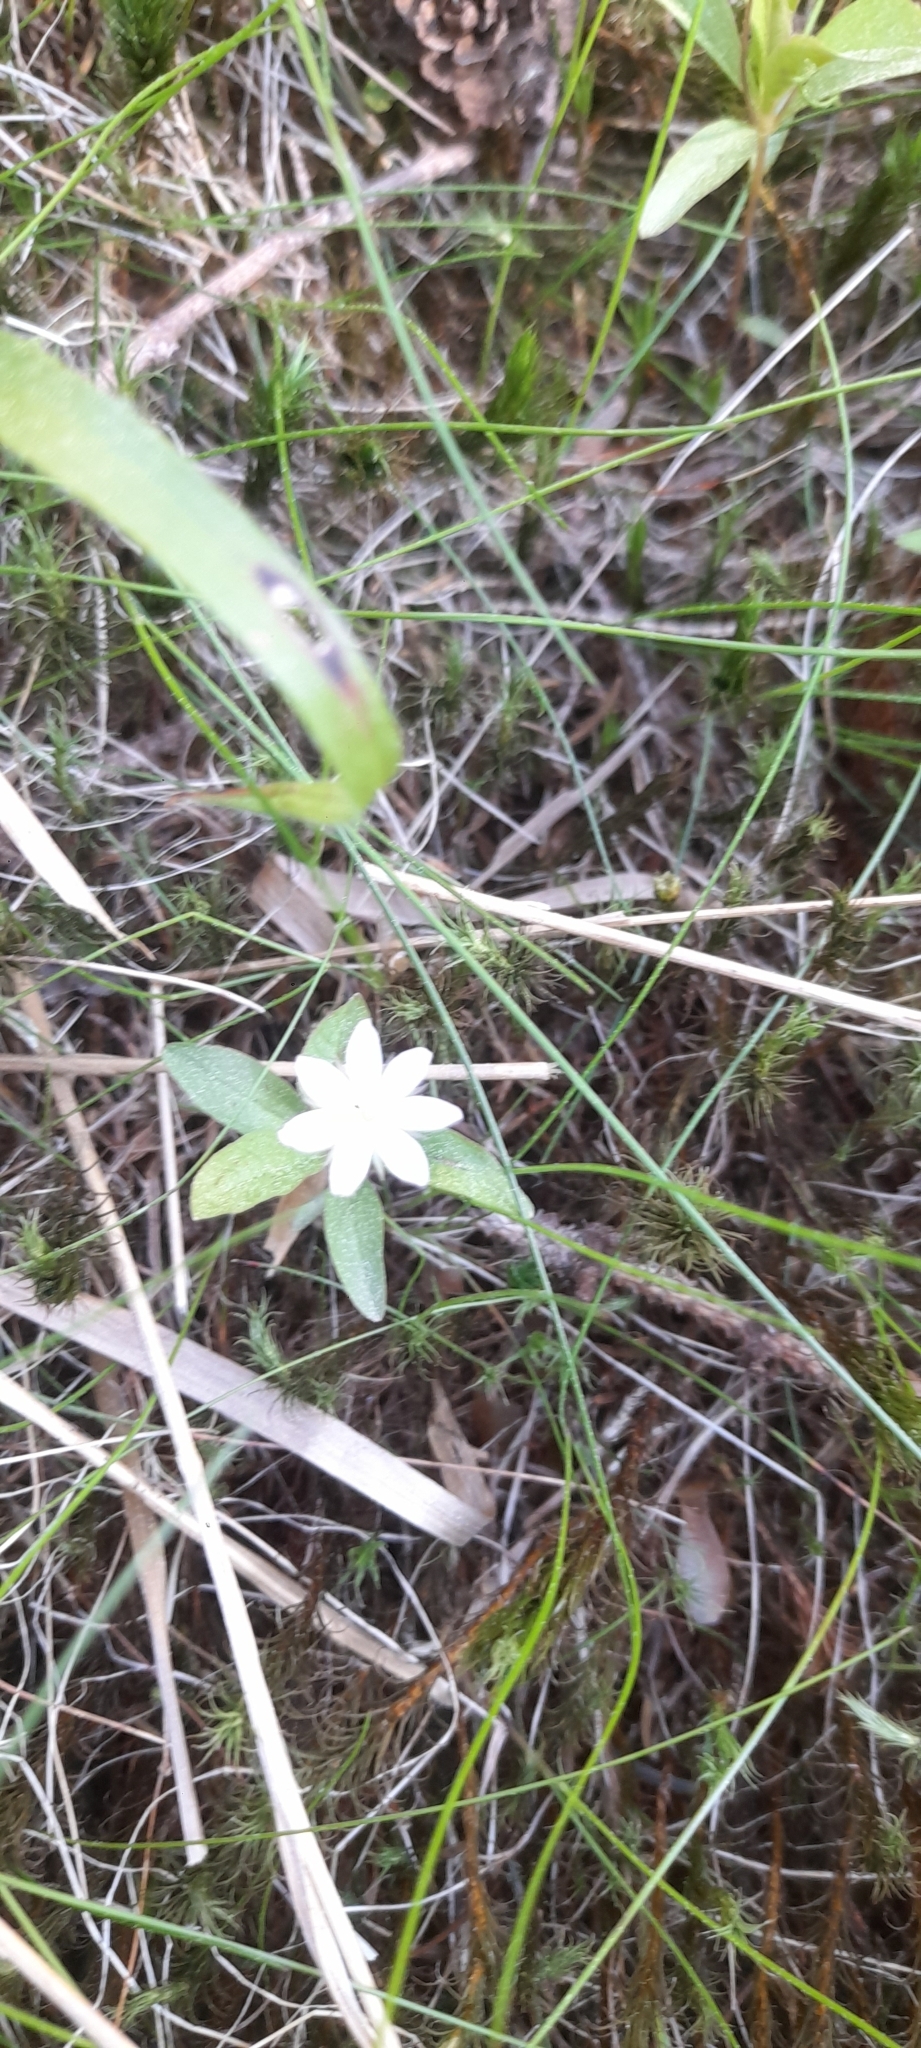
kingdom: Plantae
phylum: Tracheophyta
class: Magnoliopsida
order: Ericales
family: Primulaceae
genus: Lysimachia
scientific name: Lysimachia europaea
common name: Arctic starflower
